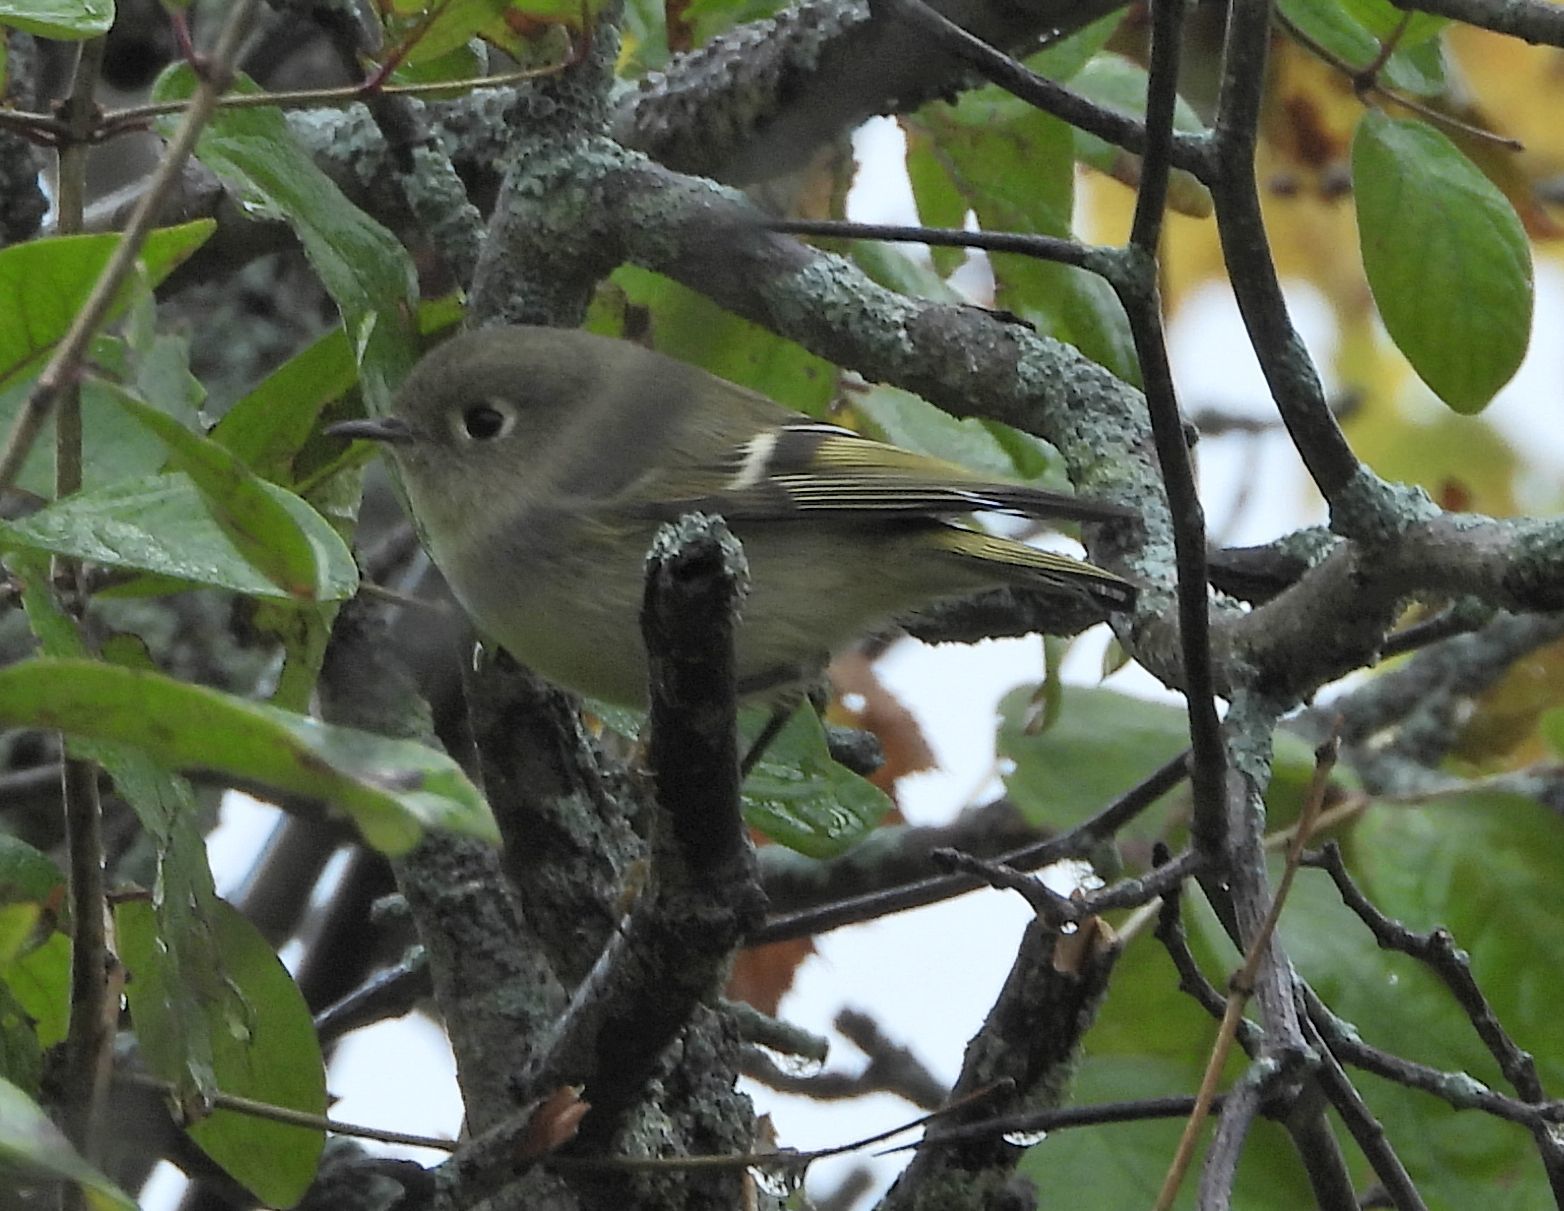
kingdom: Animalia
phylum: Chordata
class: Aves
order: Passeriformes
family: Regulidae
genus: Regulus
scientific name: Regulus calendula
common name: Ruby-crowned kinglet
